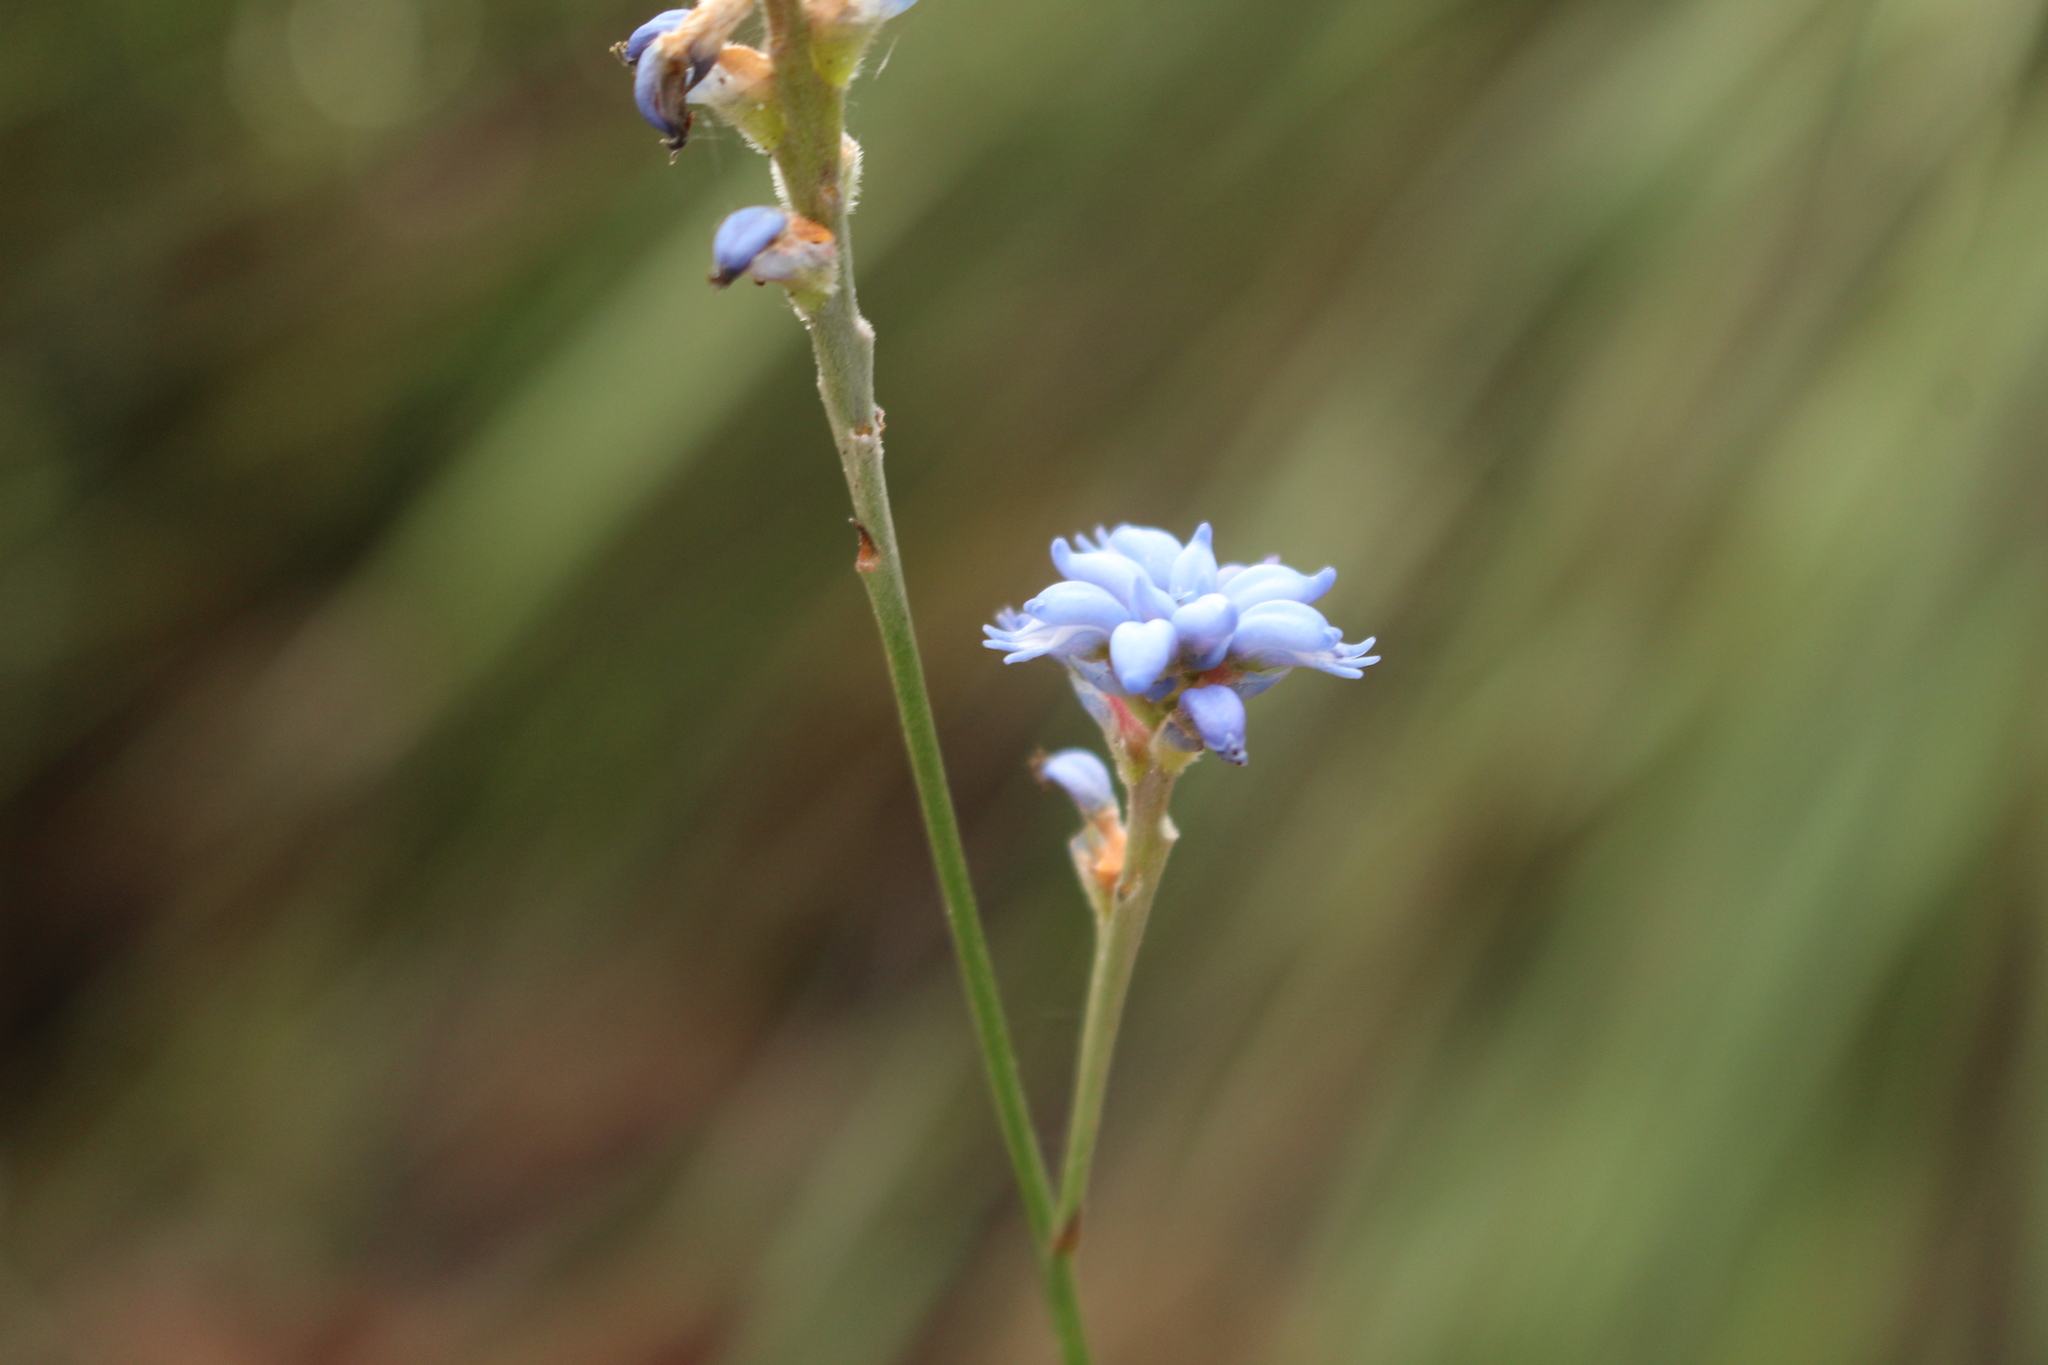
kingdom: Plantae
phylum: Tracheophyta
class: Magnoliopsida
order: Proteales
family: Proteaceae
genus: Conospermum
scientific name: Conospermum caeruleum
